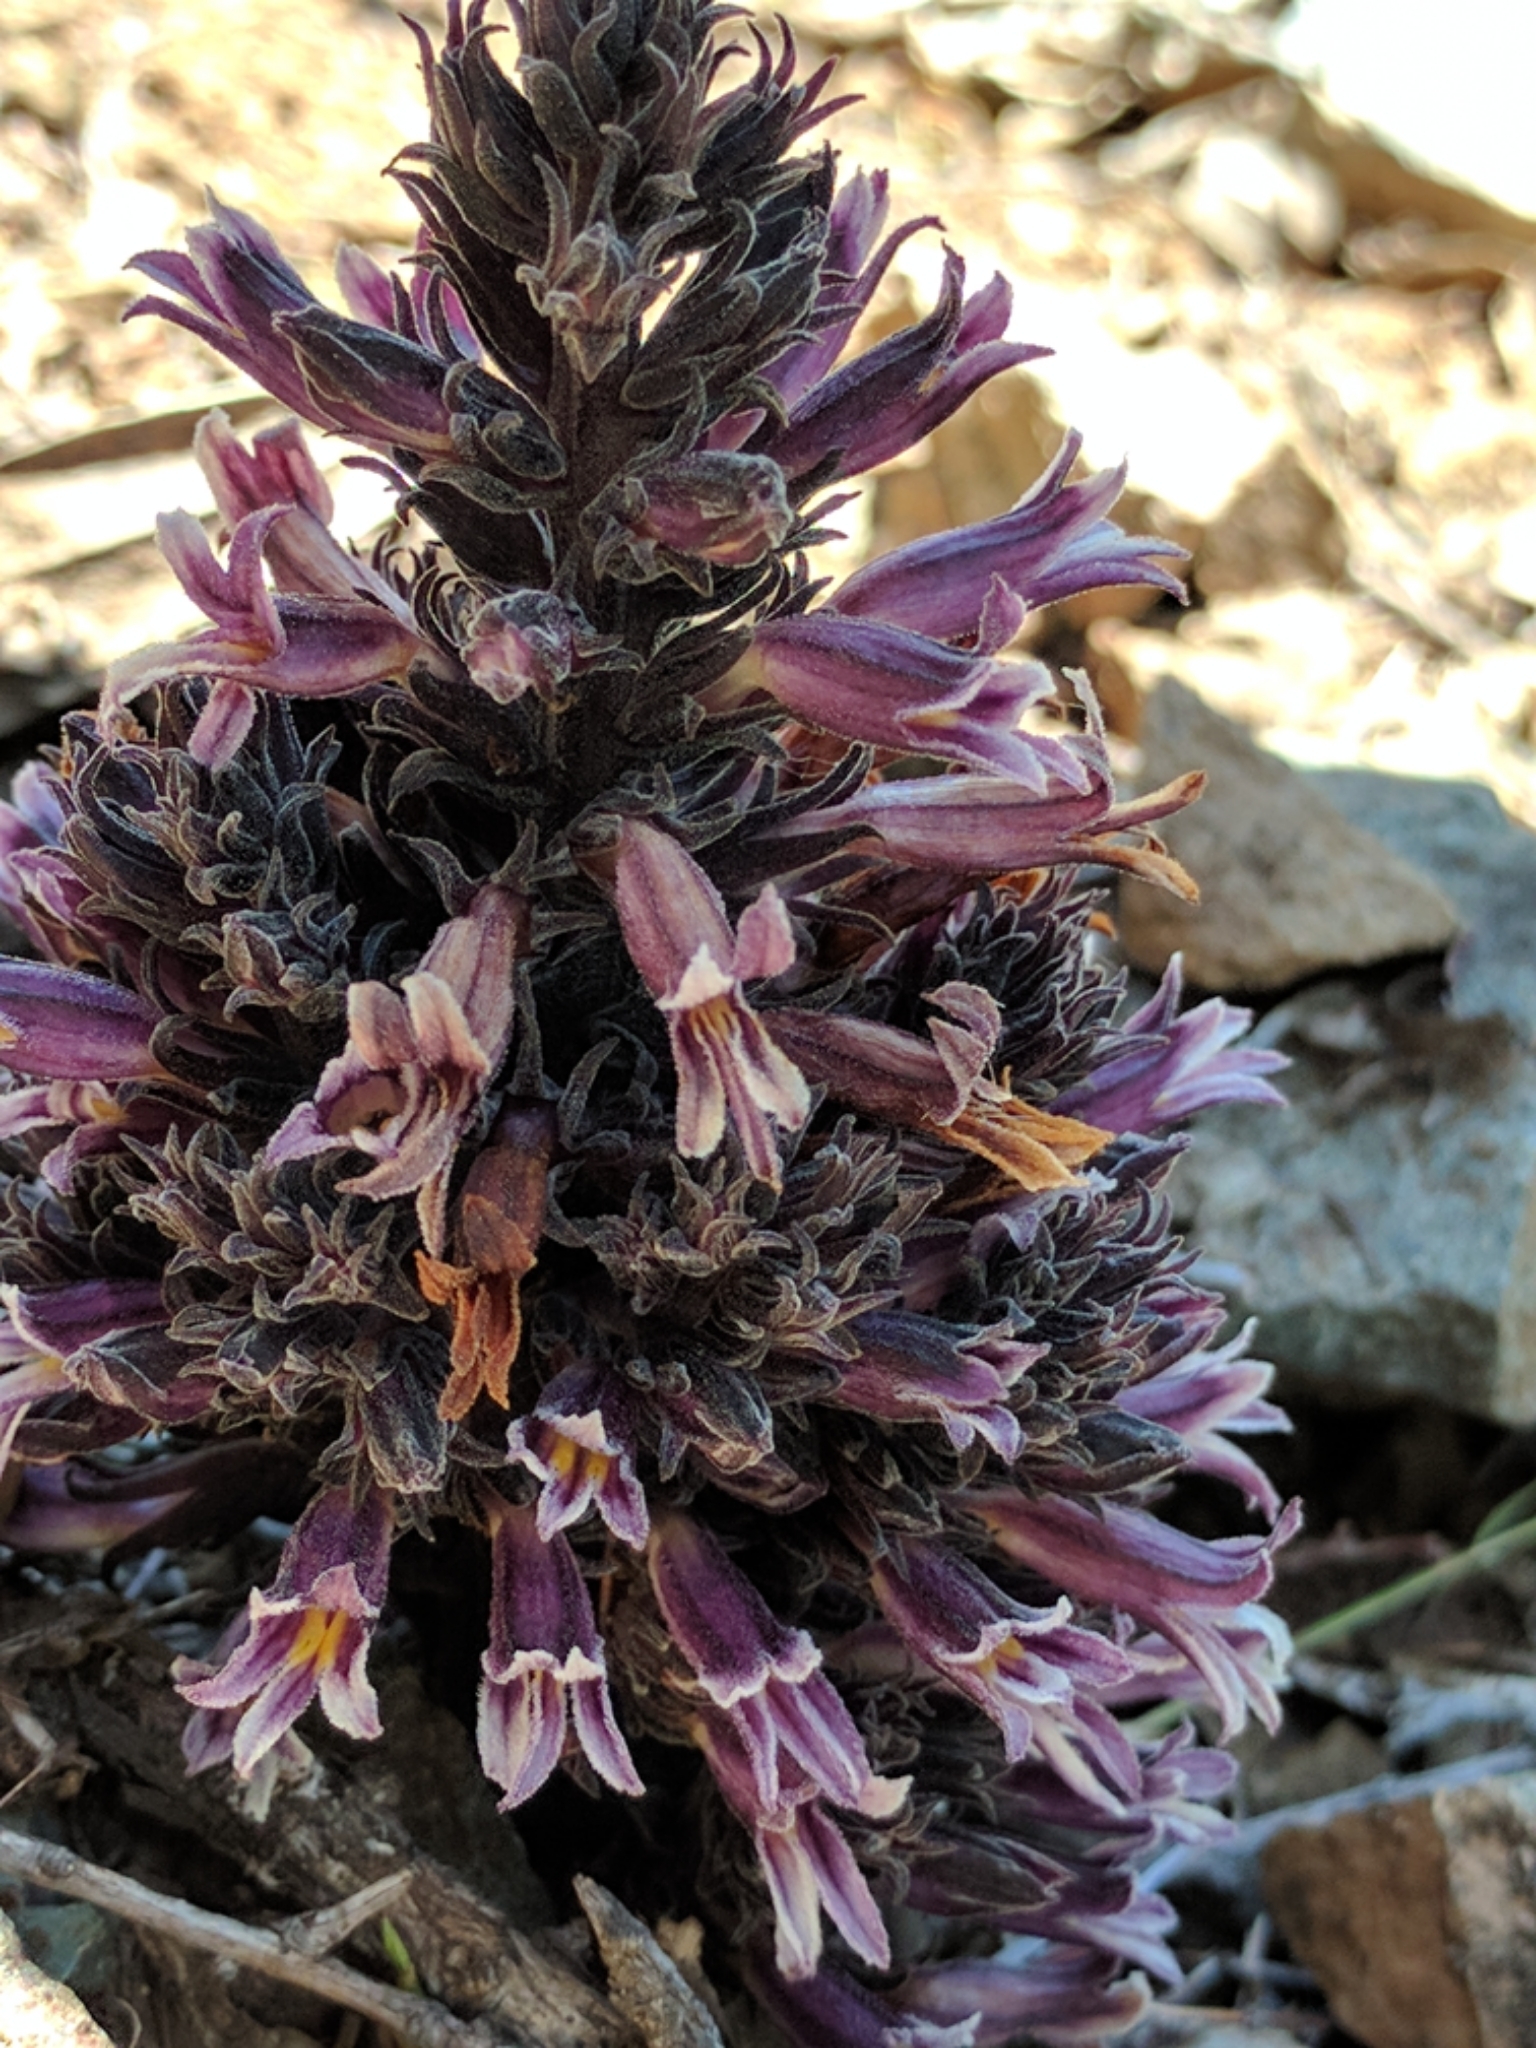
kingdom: Plantae
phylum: Tracheophyta
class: Magnoliopsida
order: Lamiales
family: Orobanchaceae
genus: Aphyllon
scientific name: Aphyllon tuberosum
